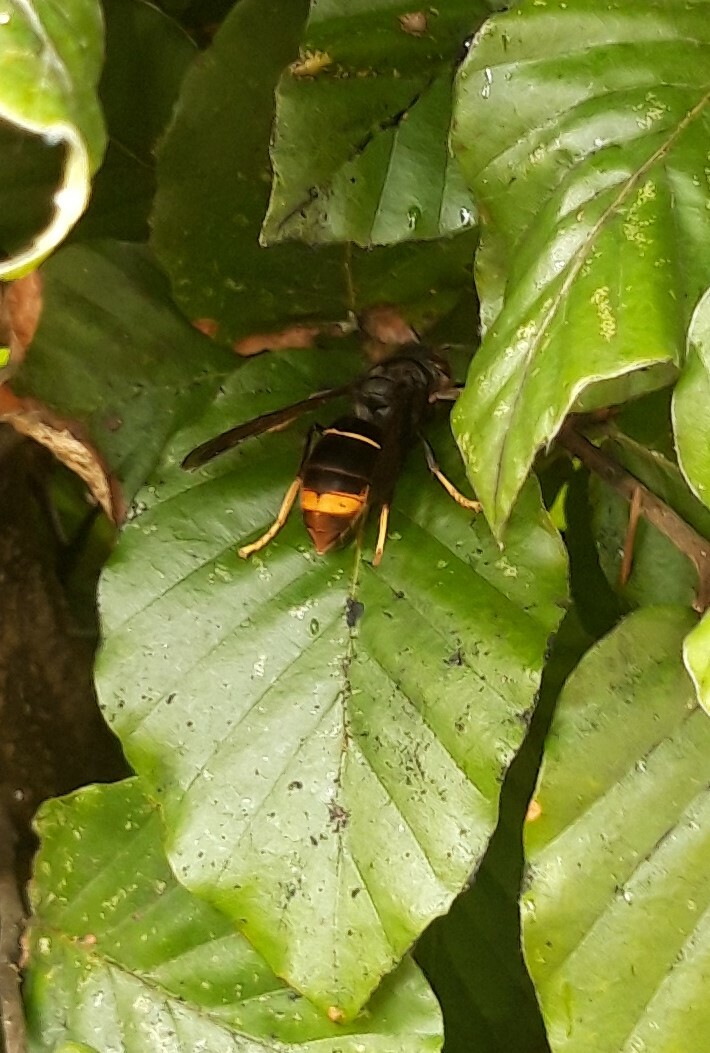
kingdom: Animalia
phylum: Arthropoda
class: Insecta
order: Hymenoptera
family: Vespidae
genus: Vespa
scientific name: Vespa velutina
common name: Asian hornet
